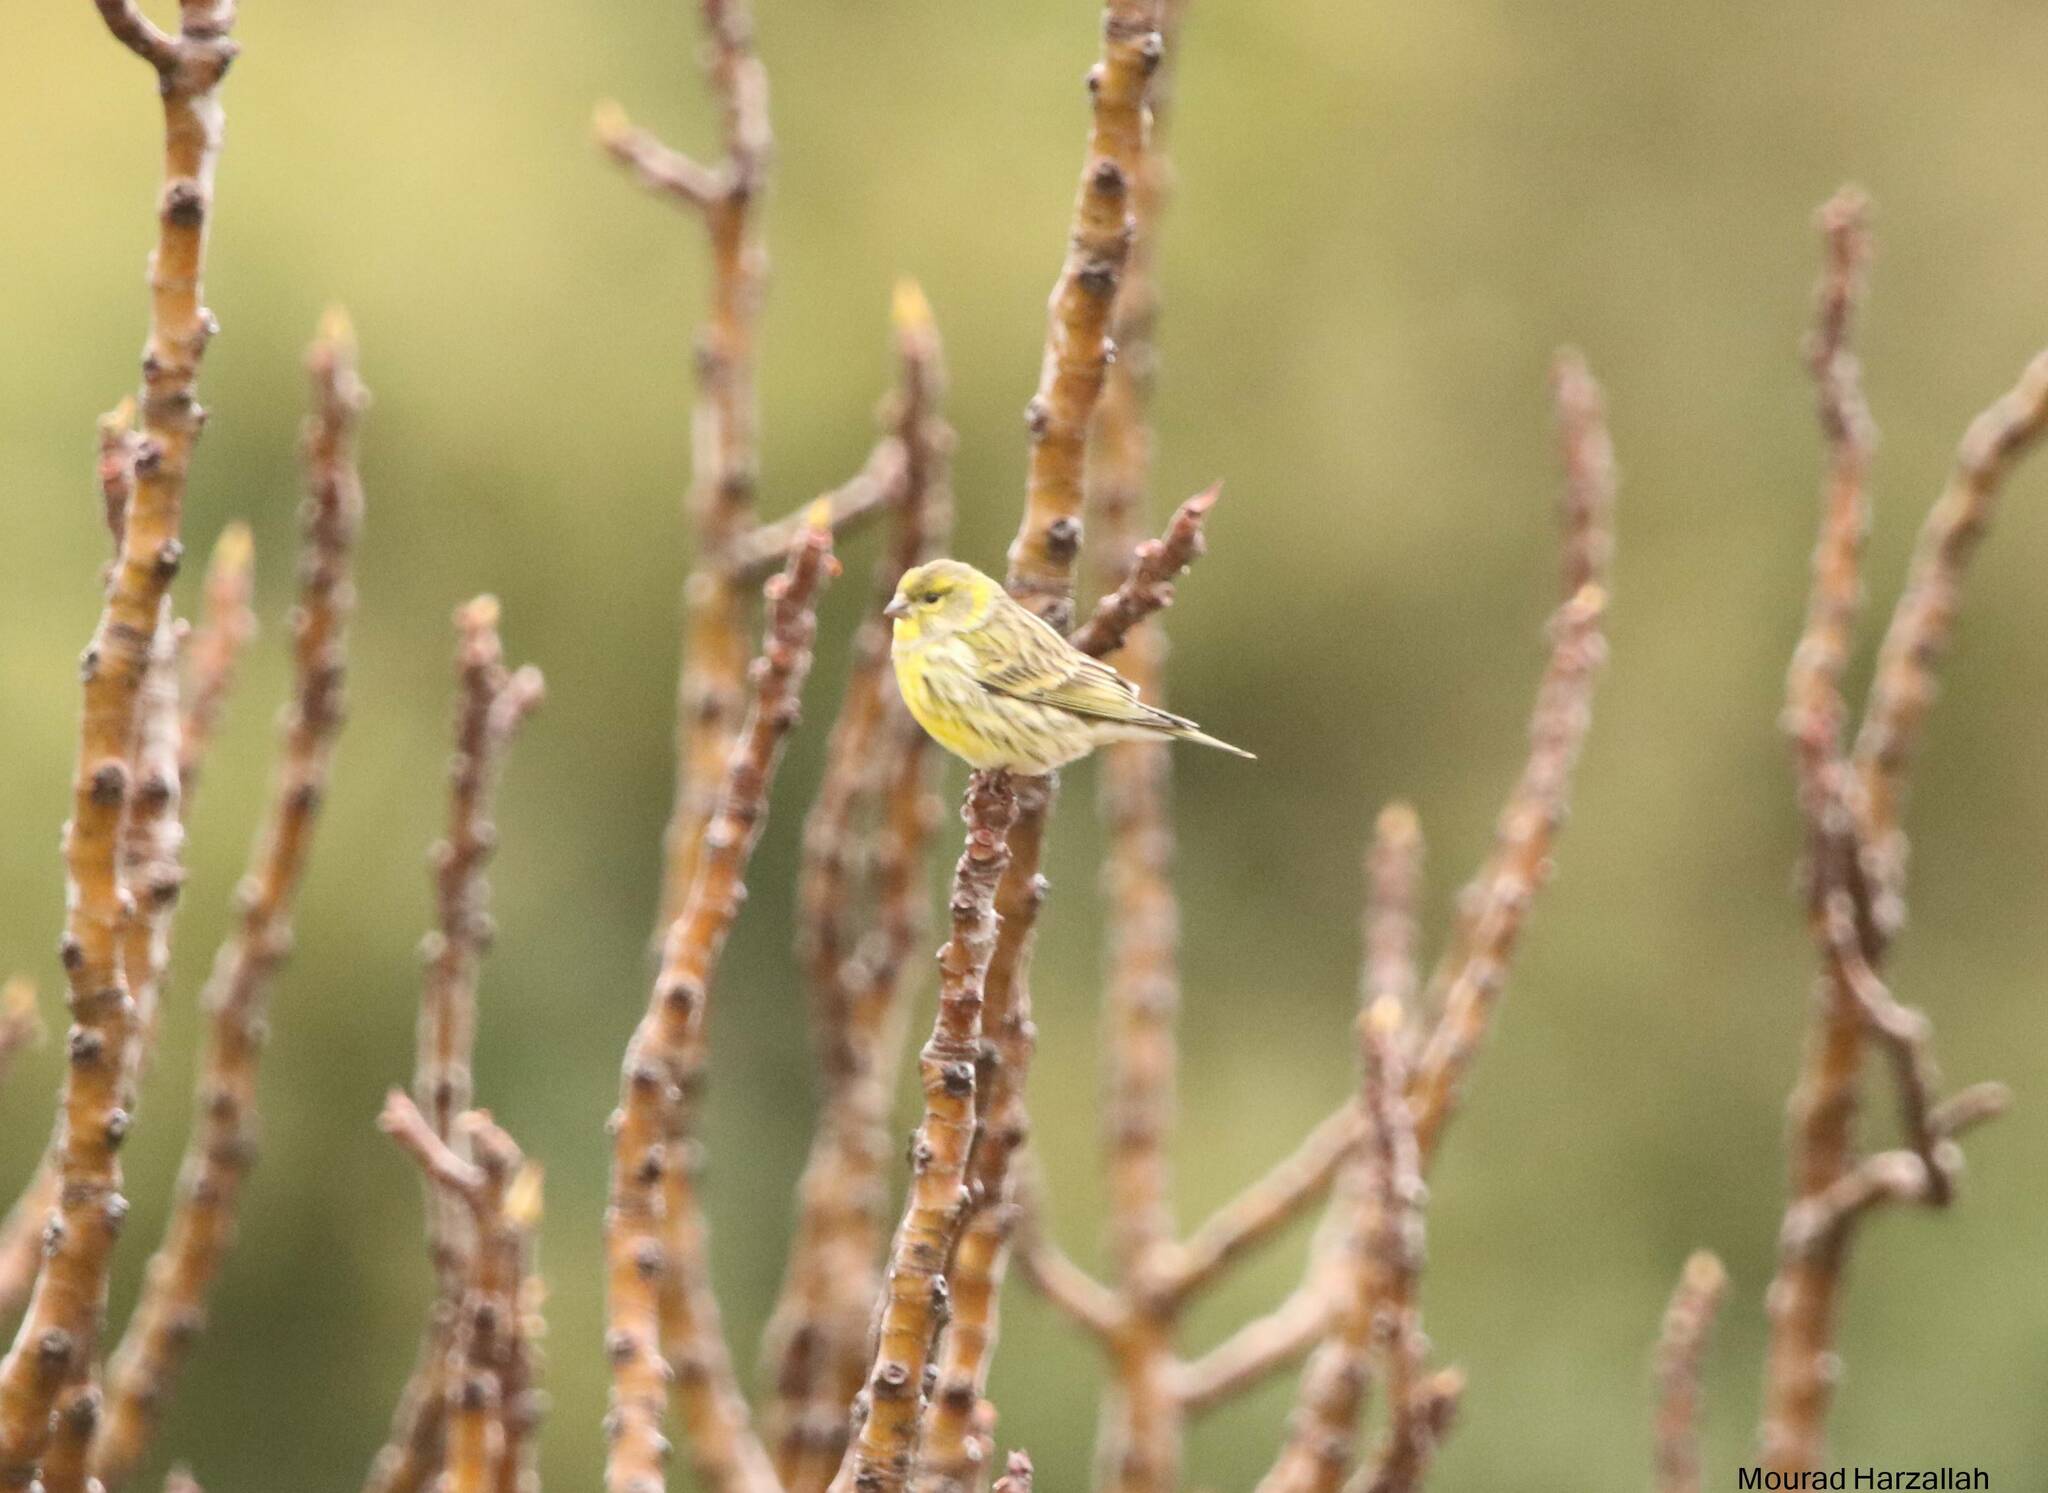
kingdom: Animalia
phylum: Chordata
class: Aves
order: Passeriformes
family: Fringillidae
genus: Serinus
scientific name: Serinus serinus
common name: European serin
